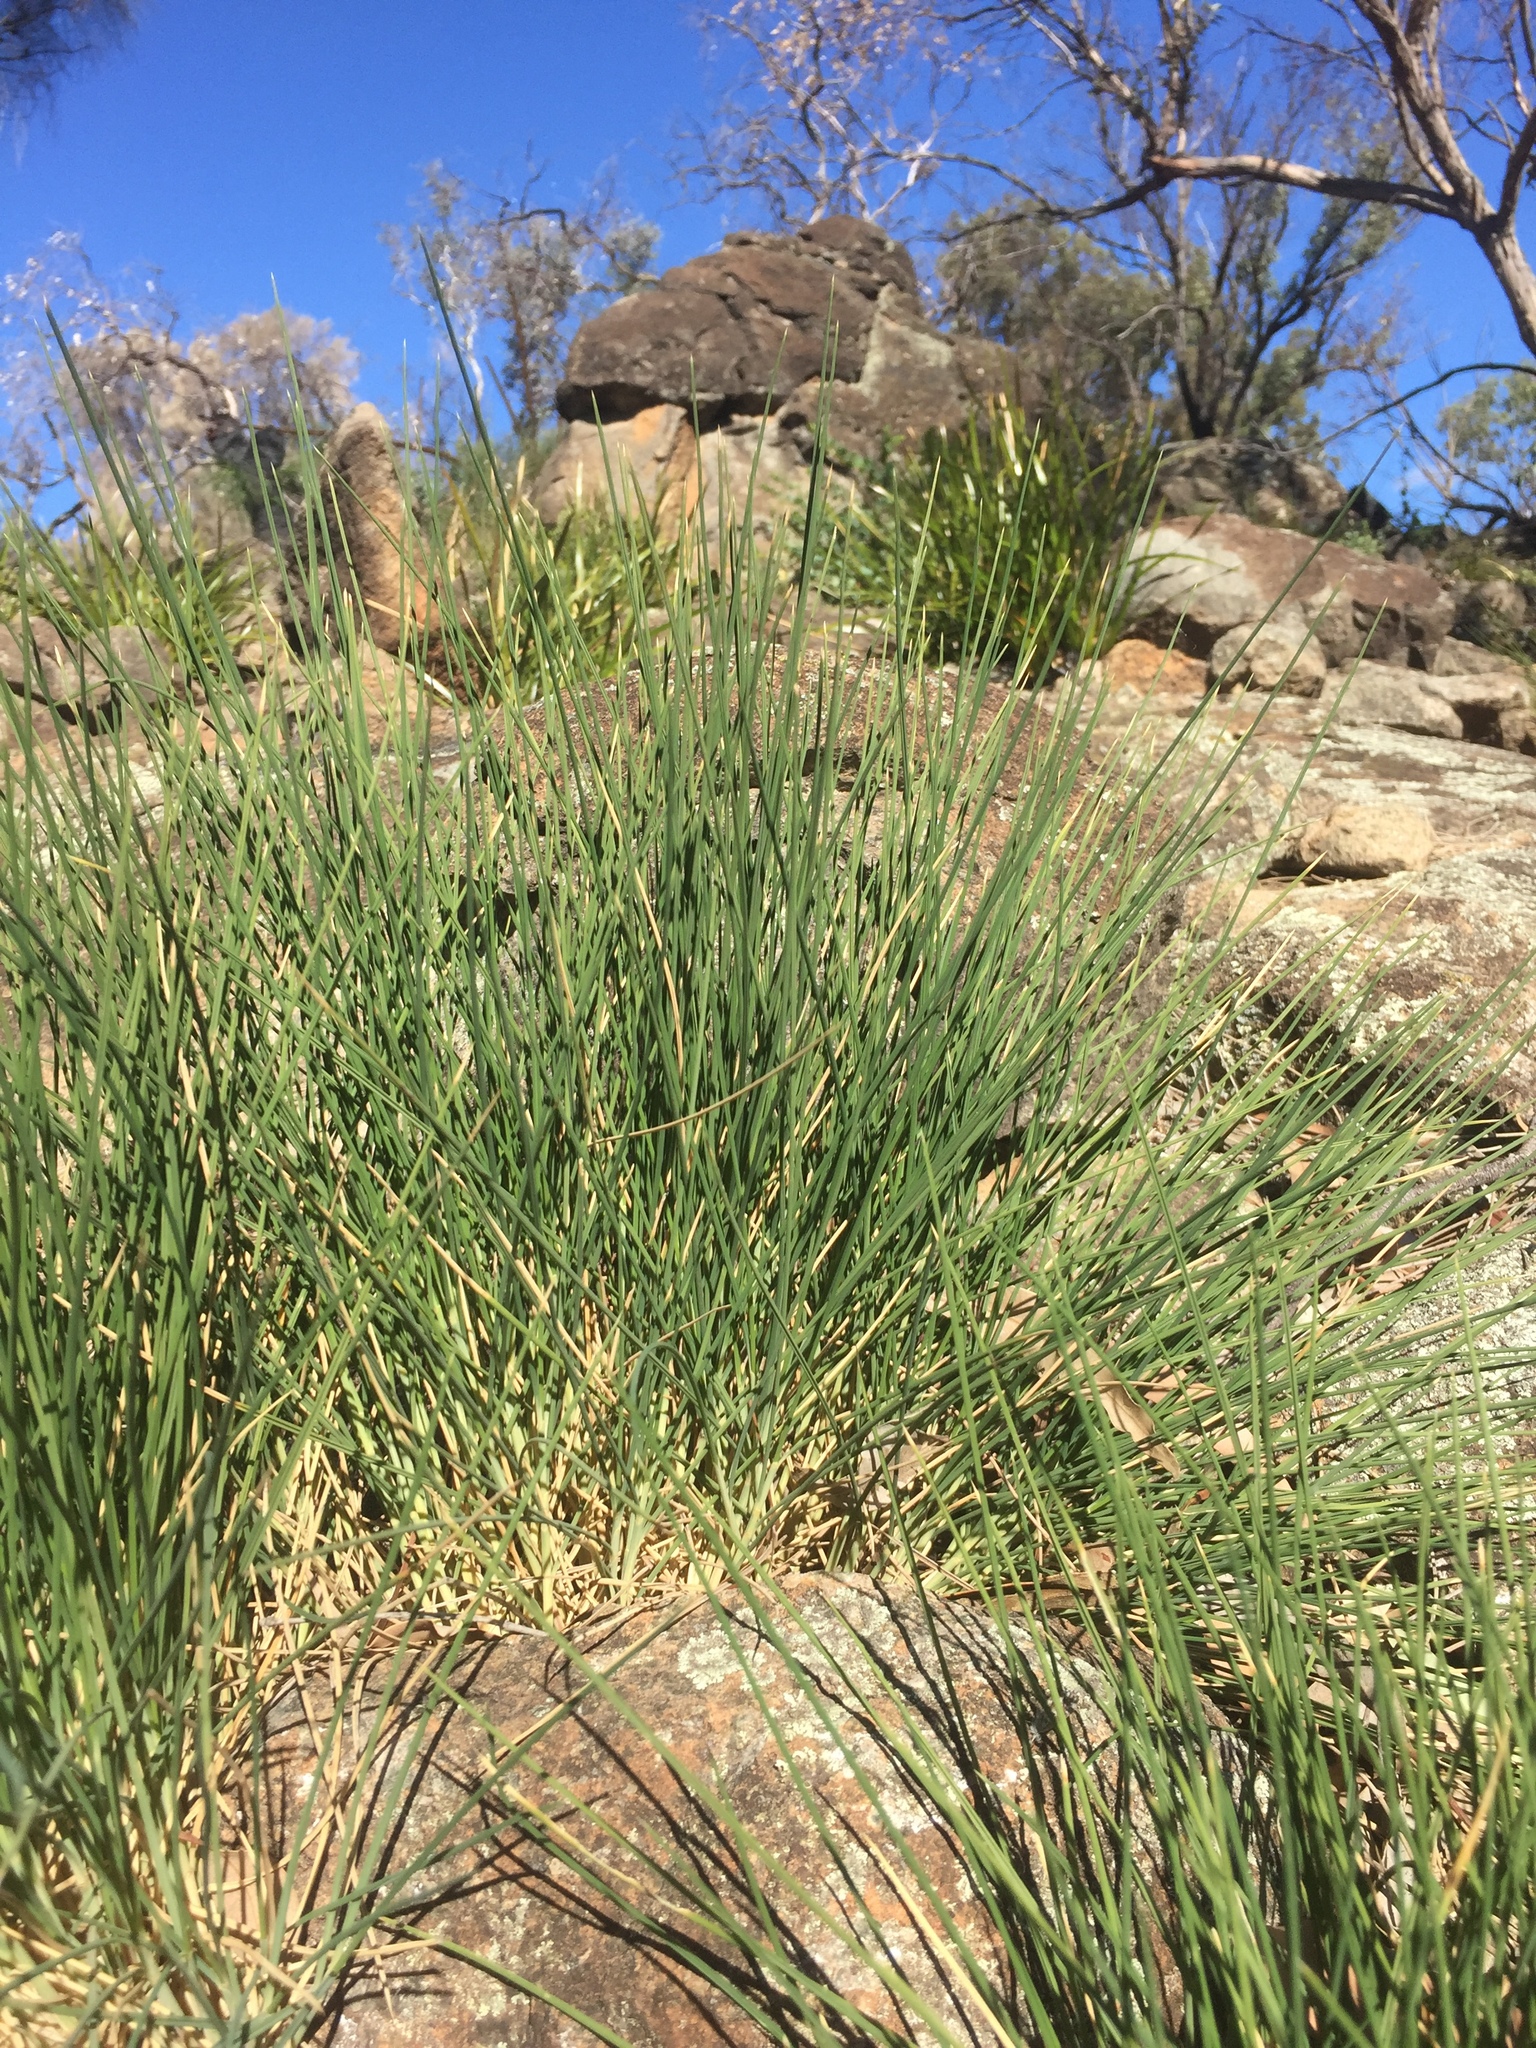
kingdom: Plantae
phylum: Tracheophyta
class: Liliopsida
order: Poales
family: Poaceae
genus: Triodia
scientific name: Triodia scariosa
